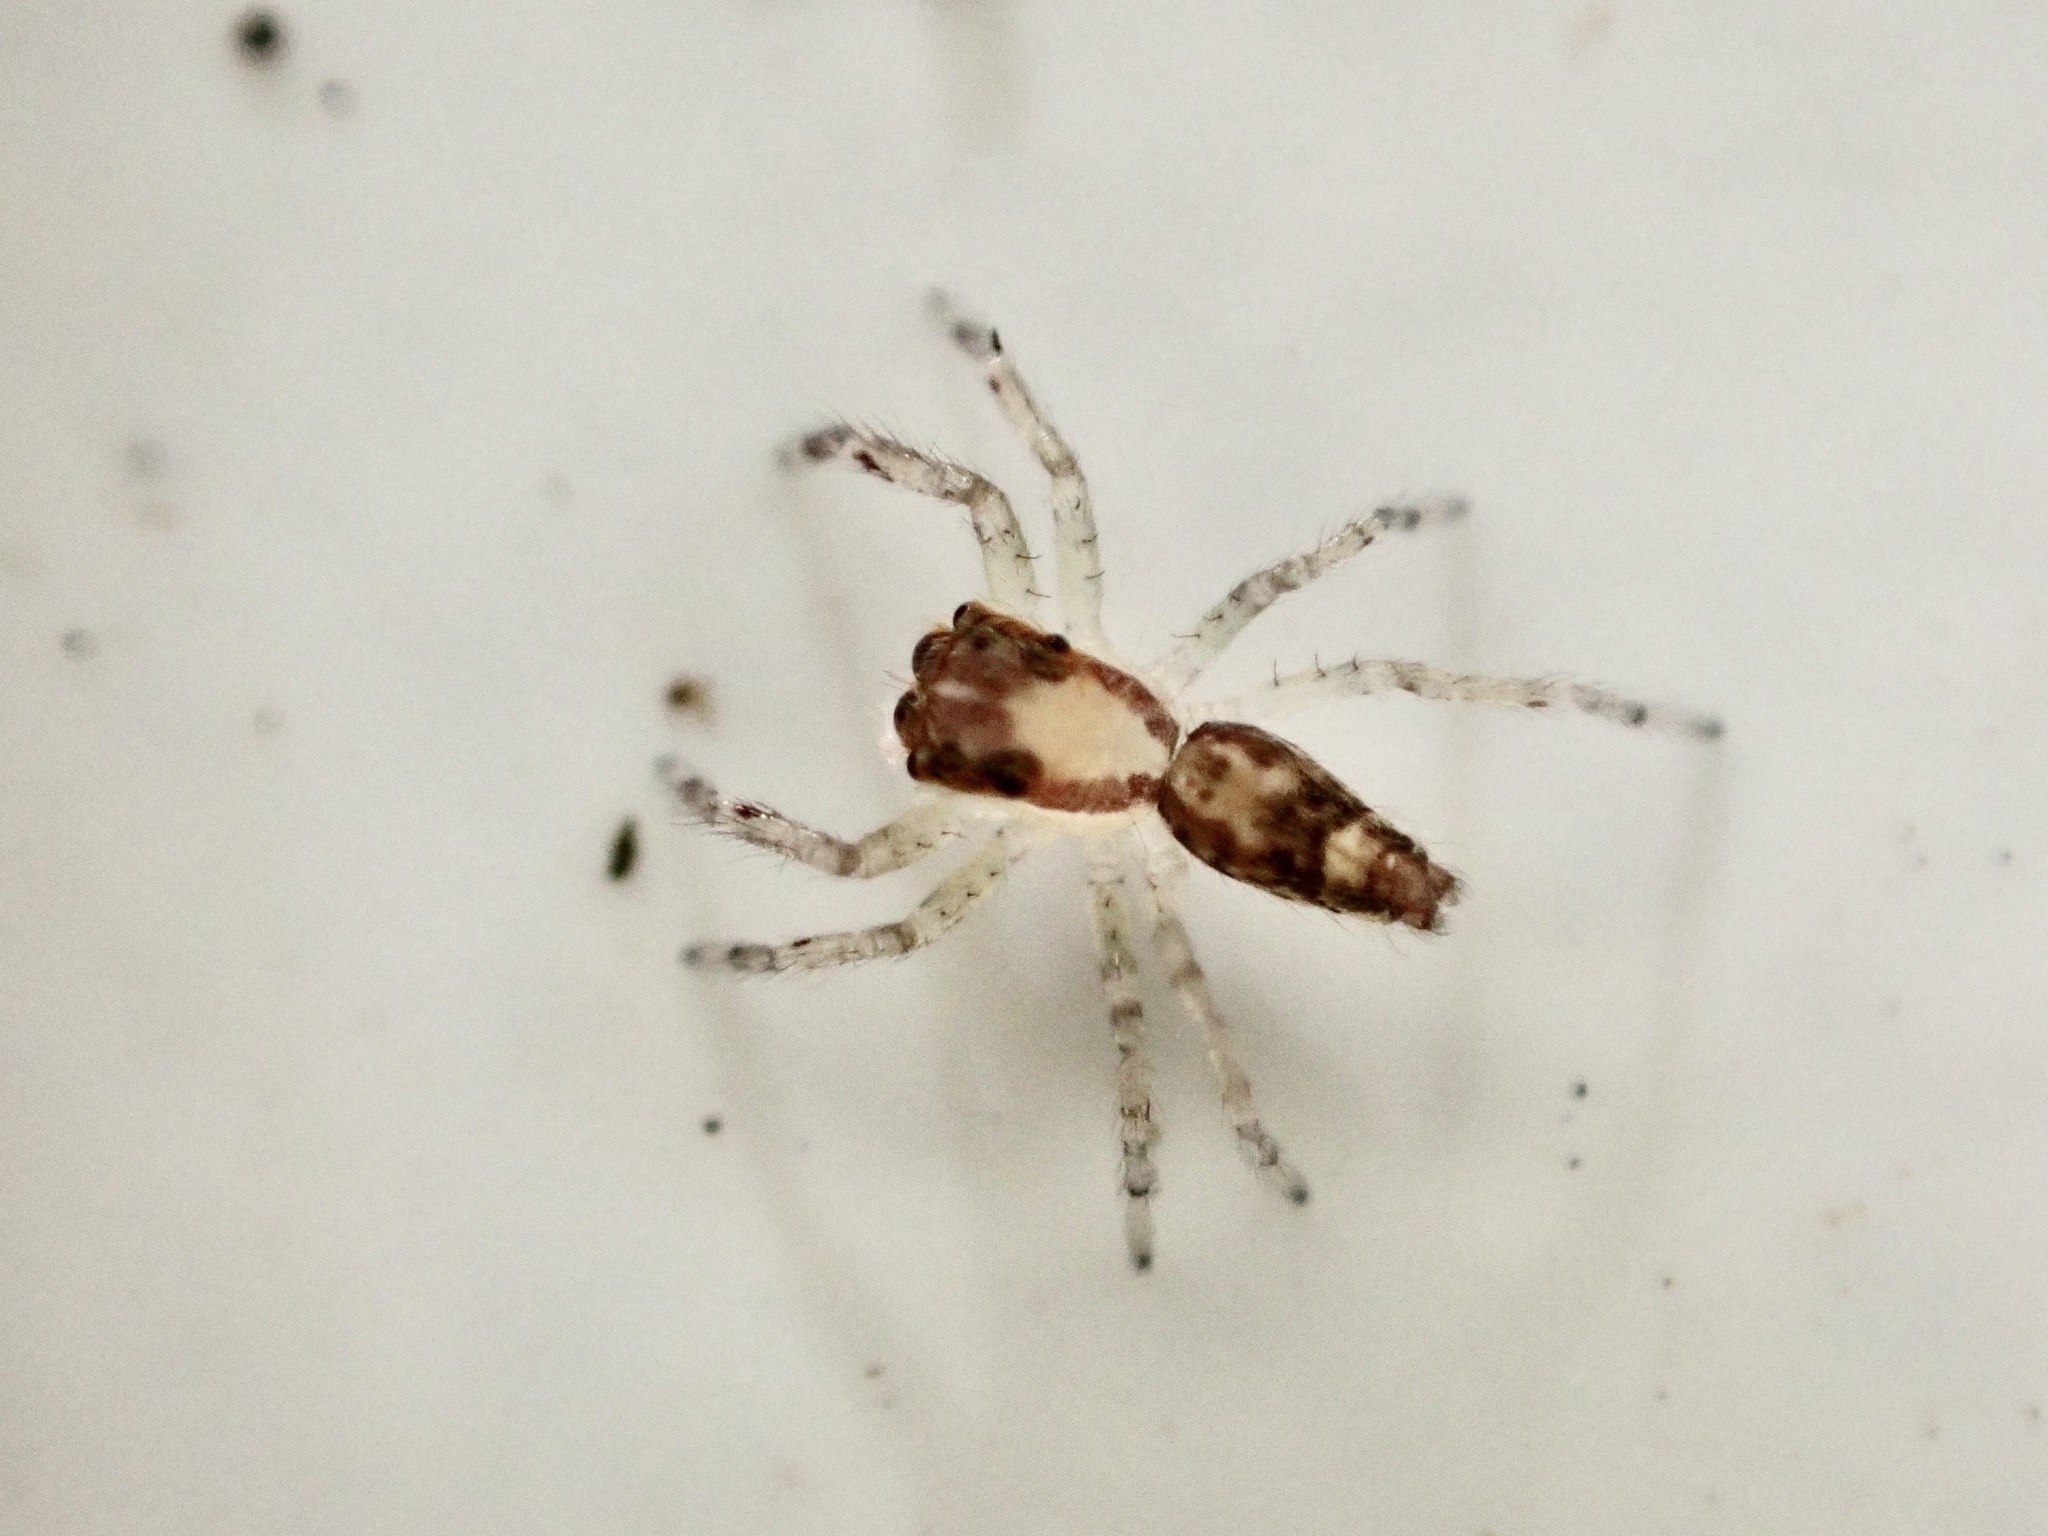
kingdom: Animalia
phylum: Arthropoda
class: Arachnida
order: Araneae
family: Salticidae
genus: Helpis
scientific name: Helpis minitabunda
